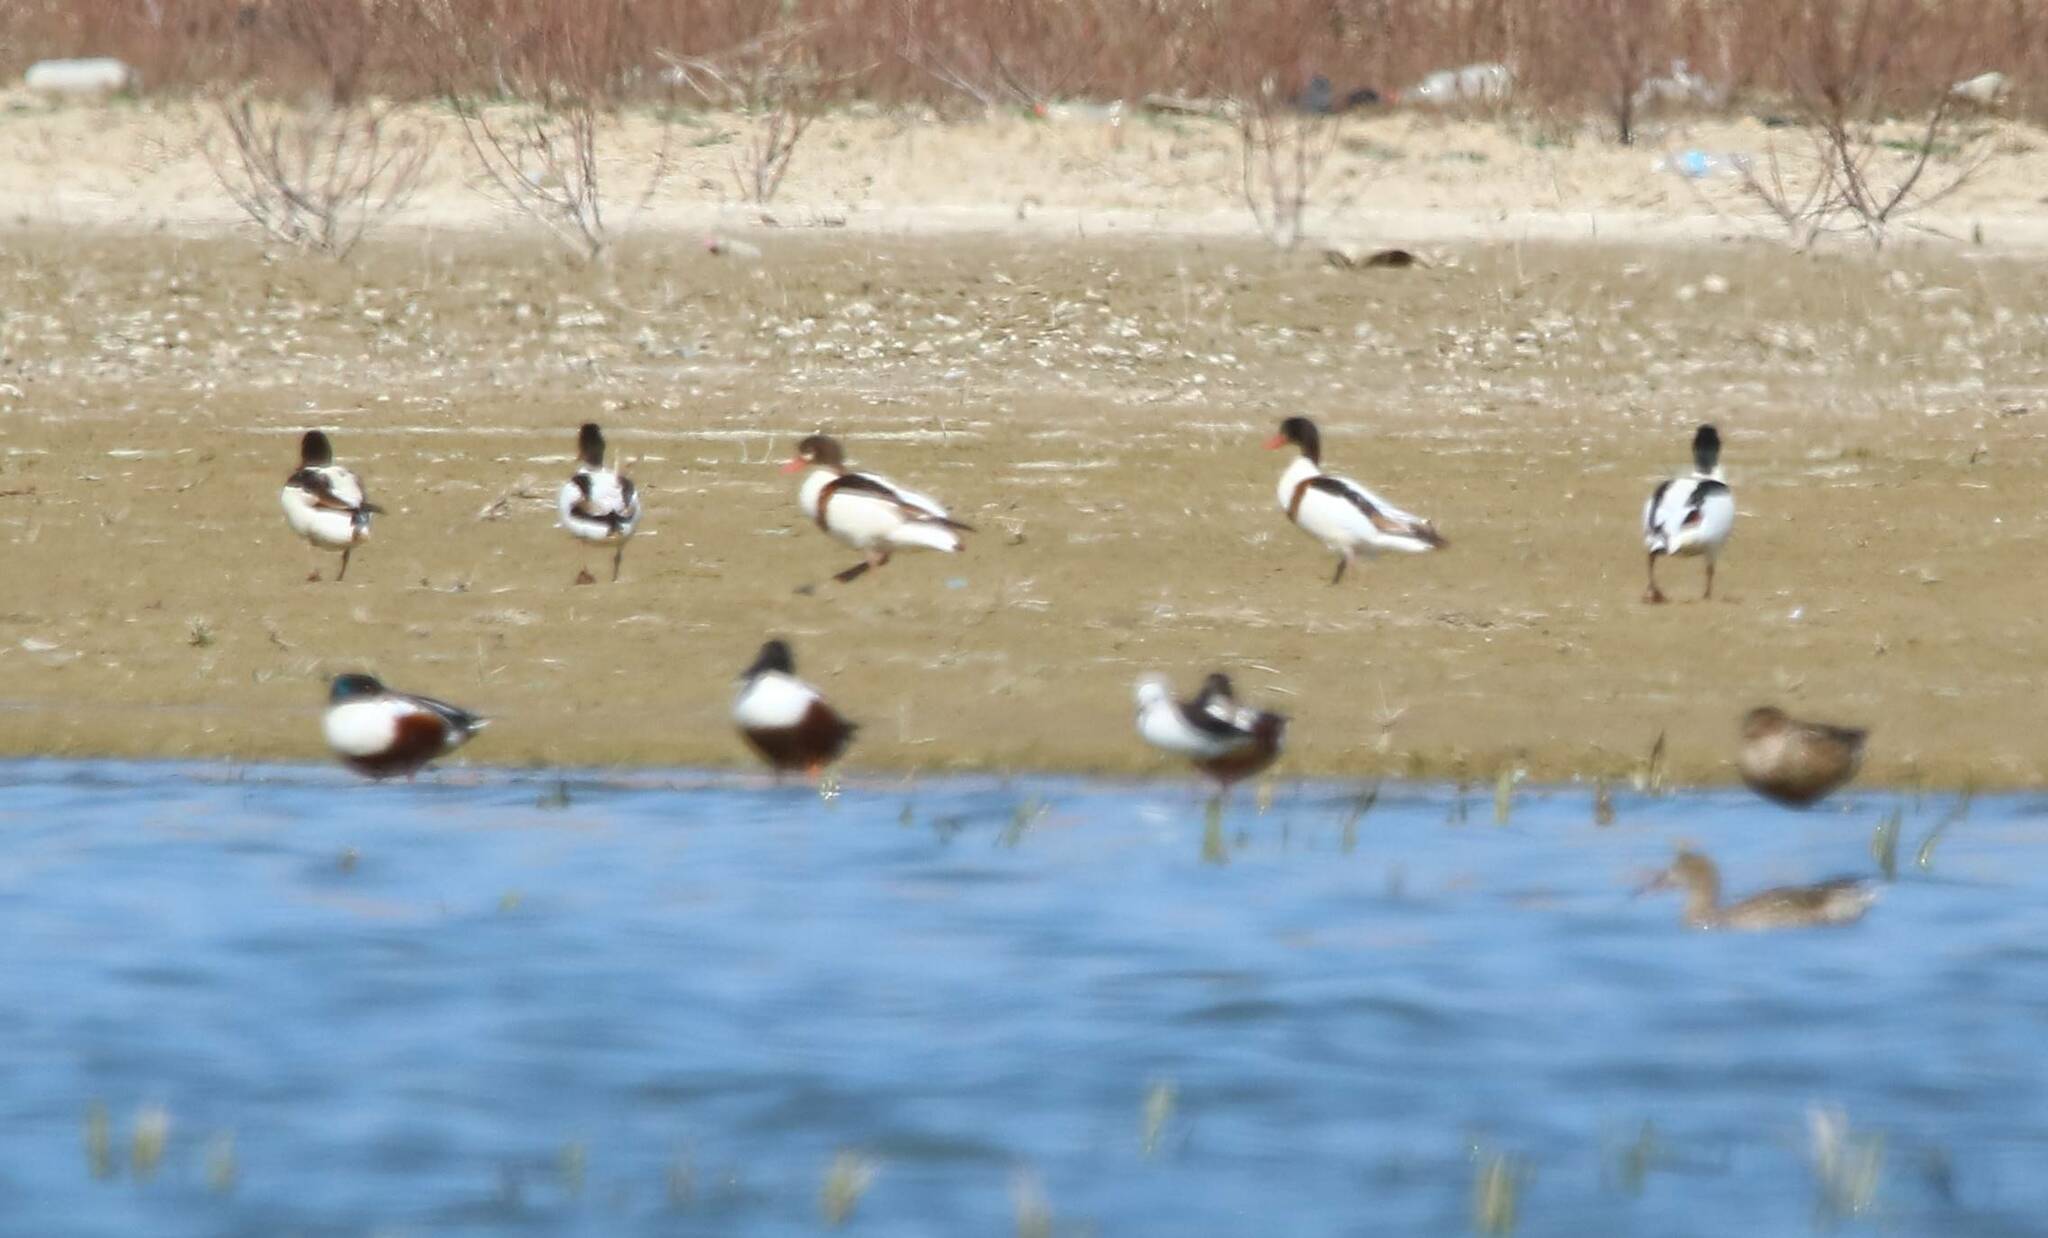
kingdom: Animalia
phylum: Chordata
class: Aves
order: Anseriformes
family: Anatidae
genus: Tadorna
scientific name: Tadorna tadorna
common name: Common shelduck
